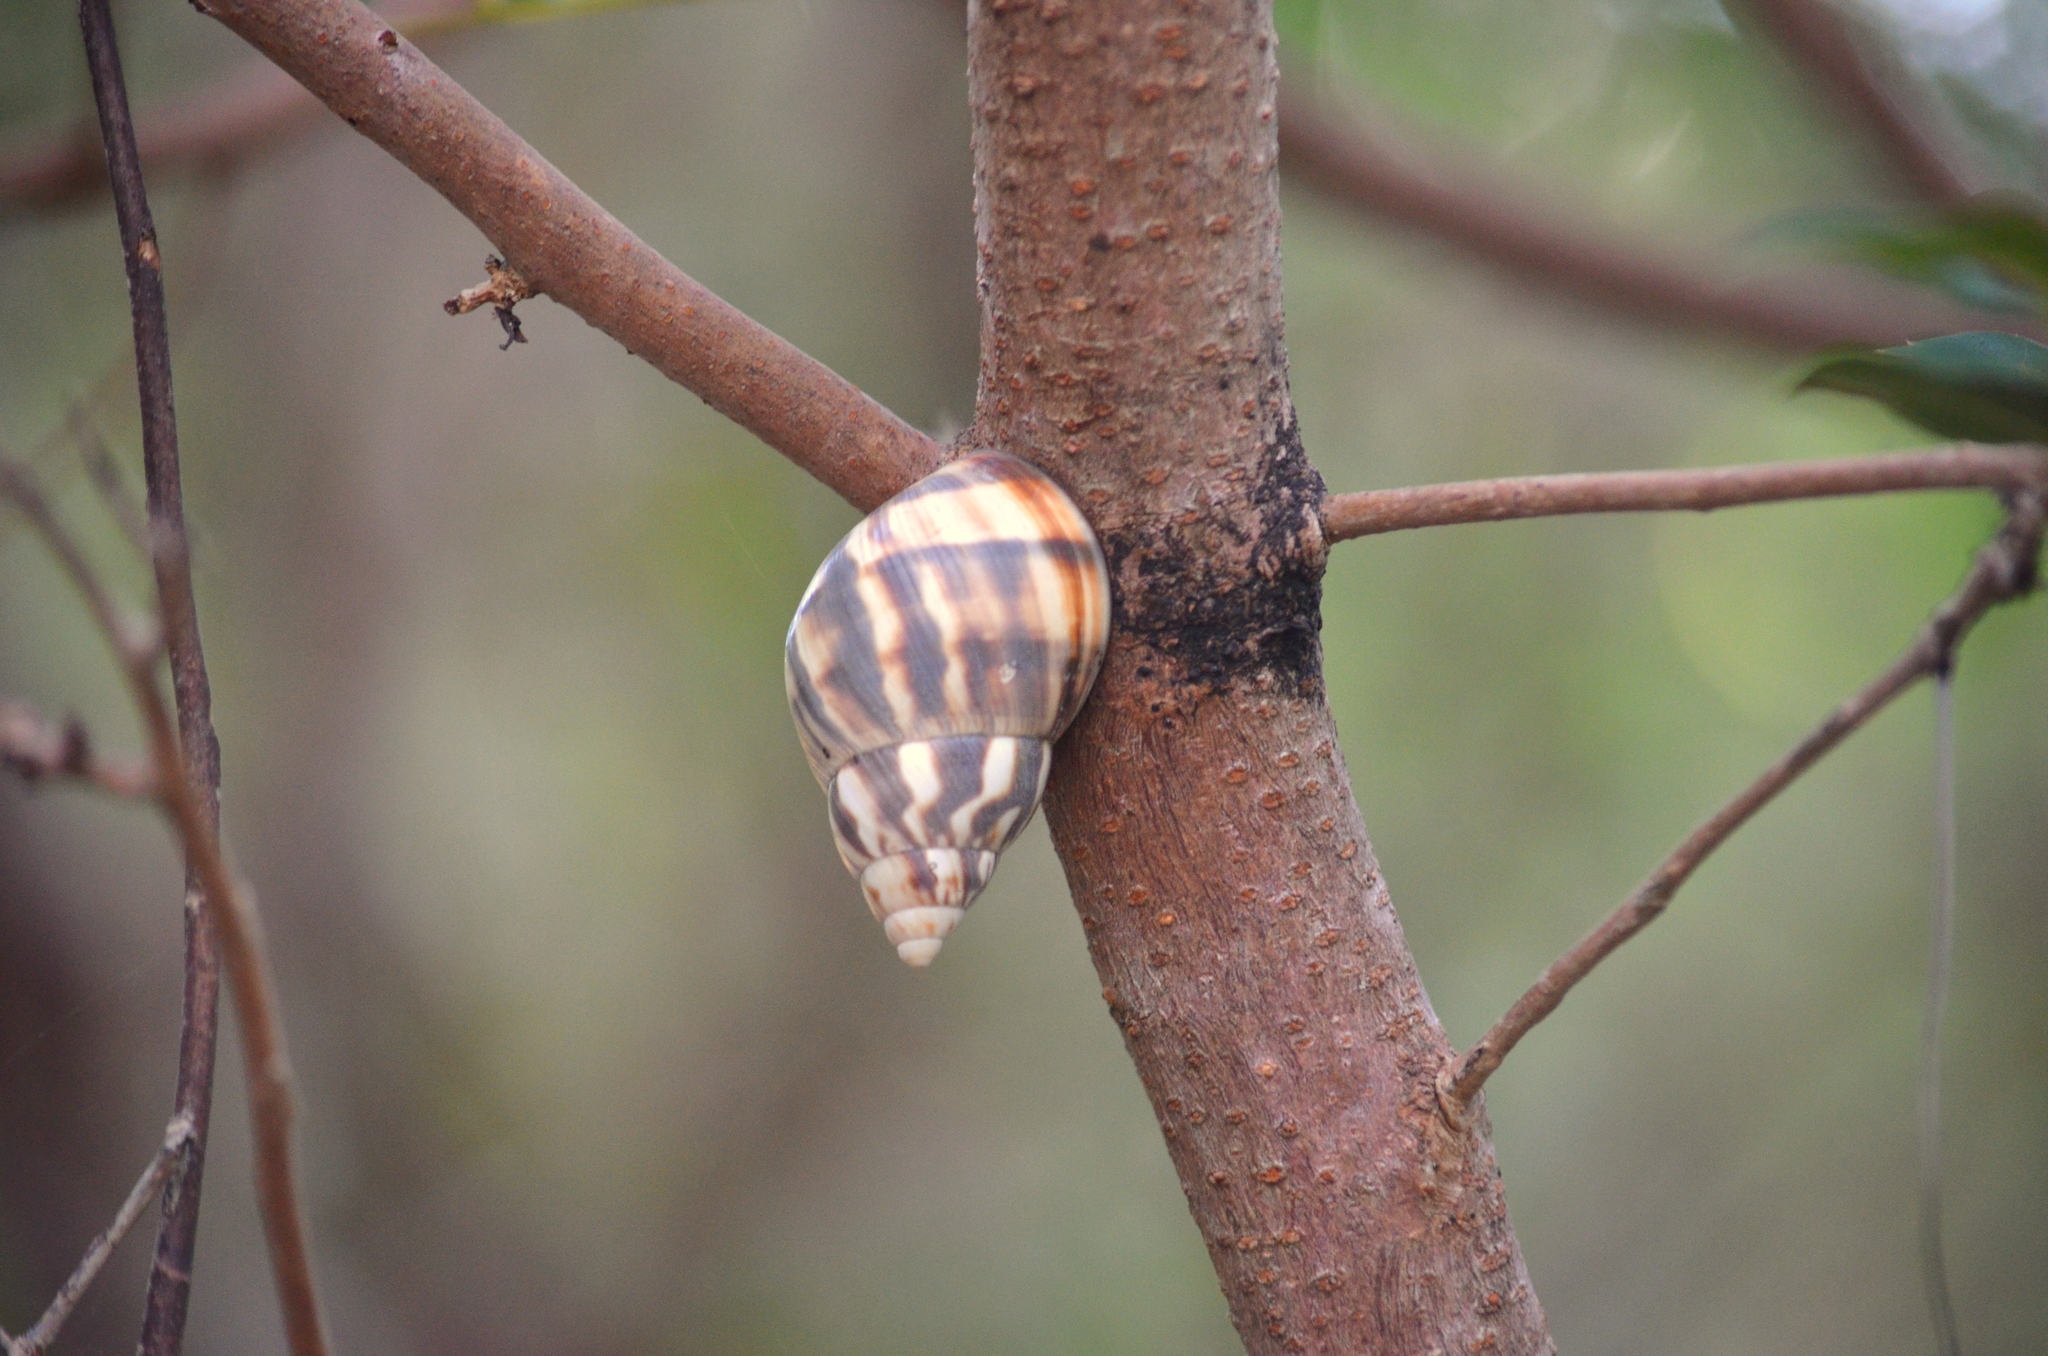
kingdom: Animalia
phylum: Mollusca
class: Gastropoda
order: Stylommatophora
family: Orthalicidae
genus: Orthalicus
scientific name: Orthalicus reses
